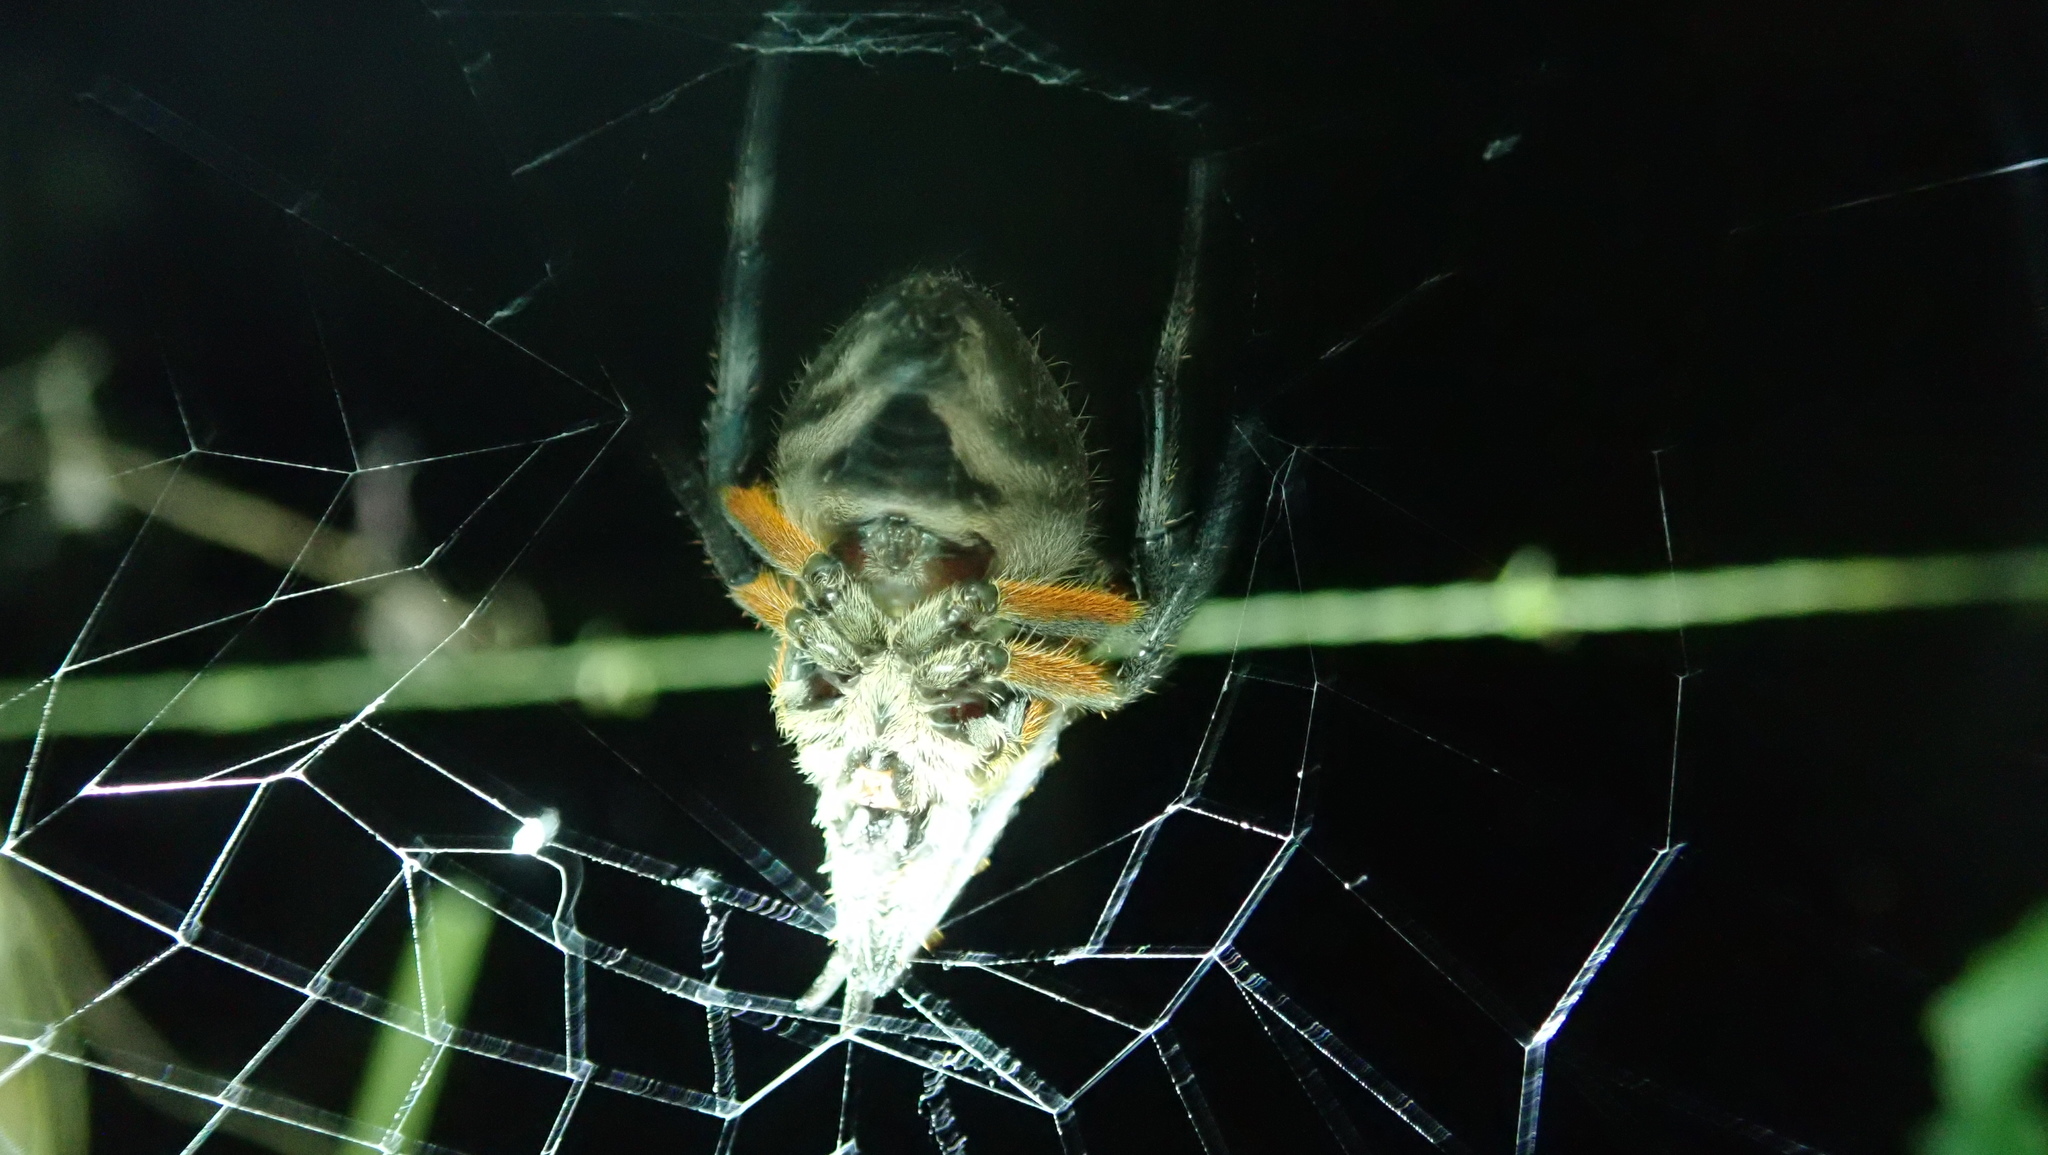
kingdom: Animalia
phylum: Arthropoda
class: Arachnida
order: Araneae
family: Araneidae
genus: Eriophora
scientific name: Eriophora fuliginea
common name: Orb weavers
